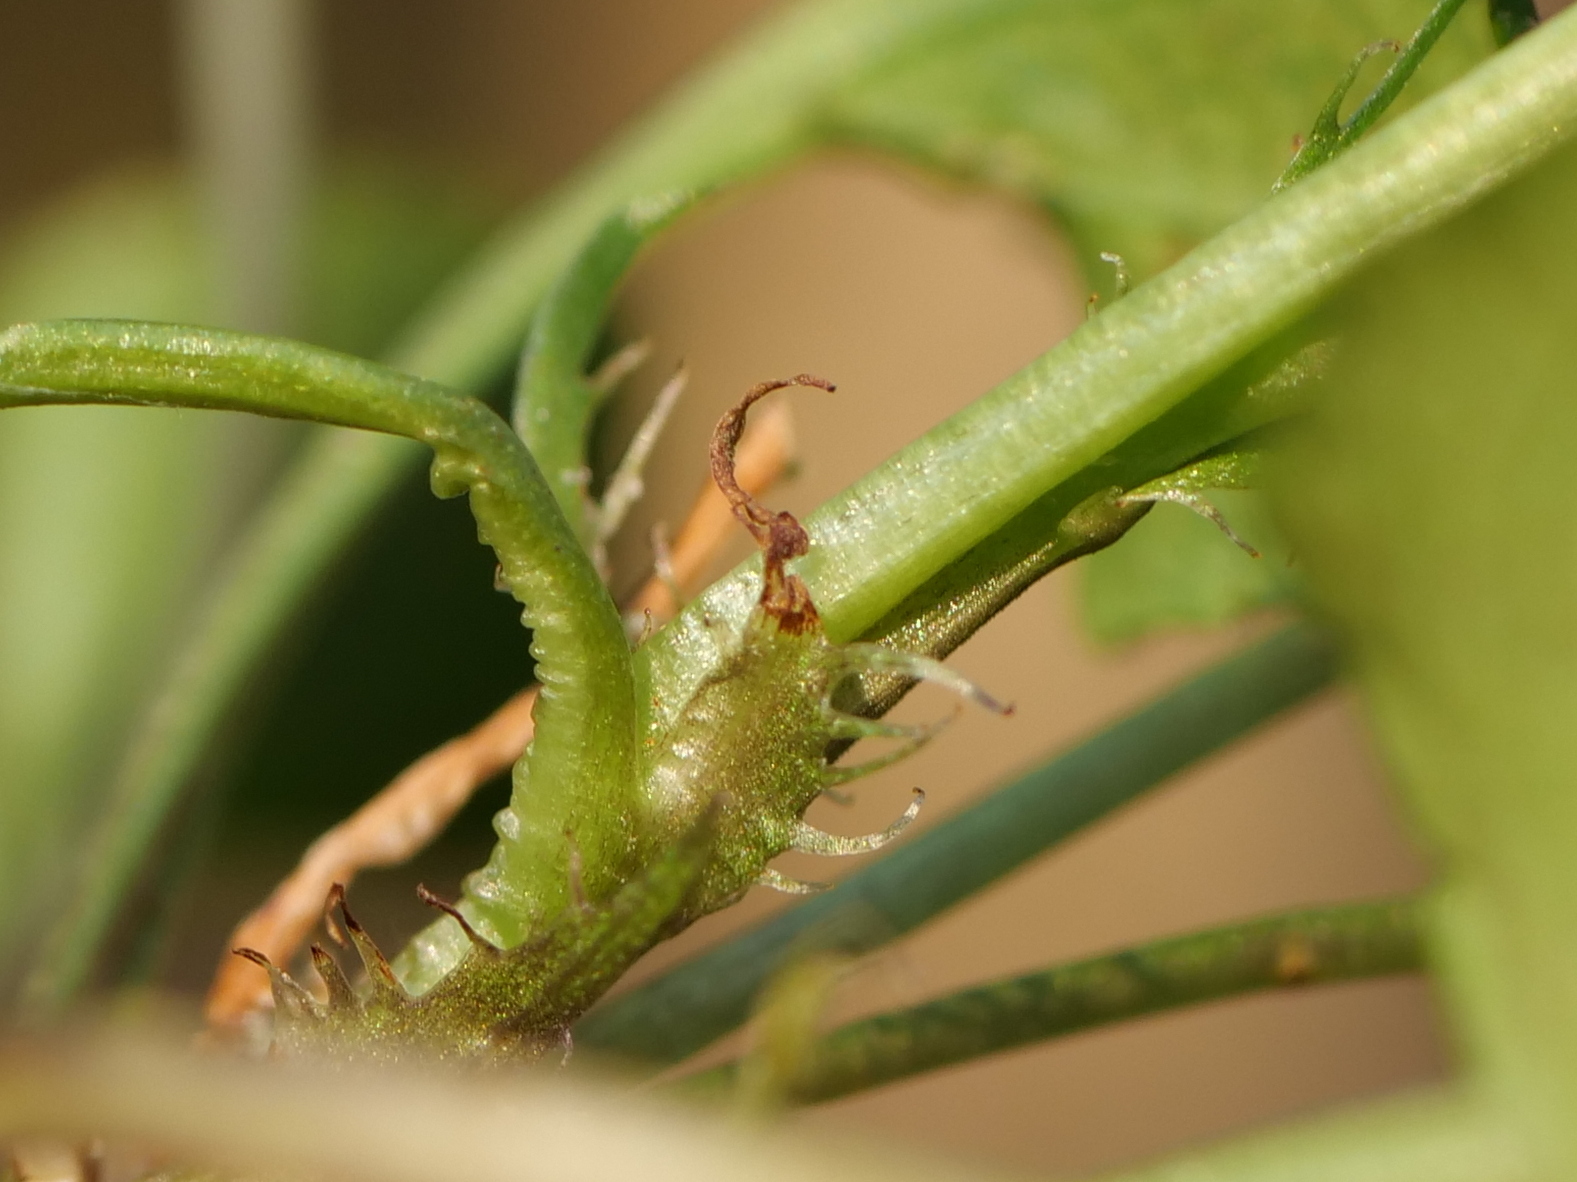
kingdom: Plantae
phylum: Tracheophyta
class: Magnoliopsida
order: Malpighiales
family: Violaceae
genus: Viola
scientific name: Viola bavarica
